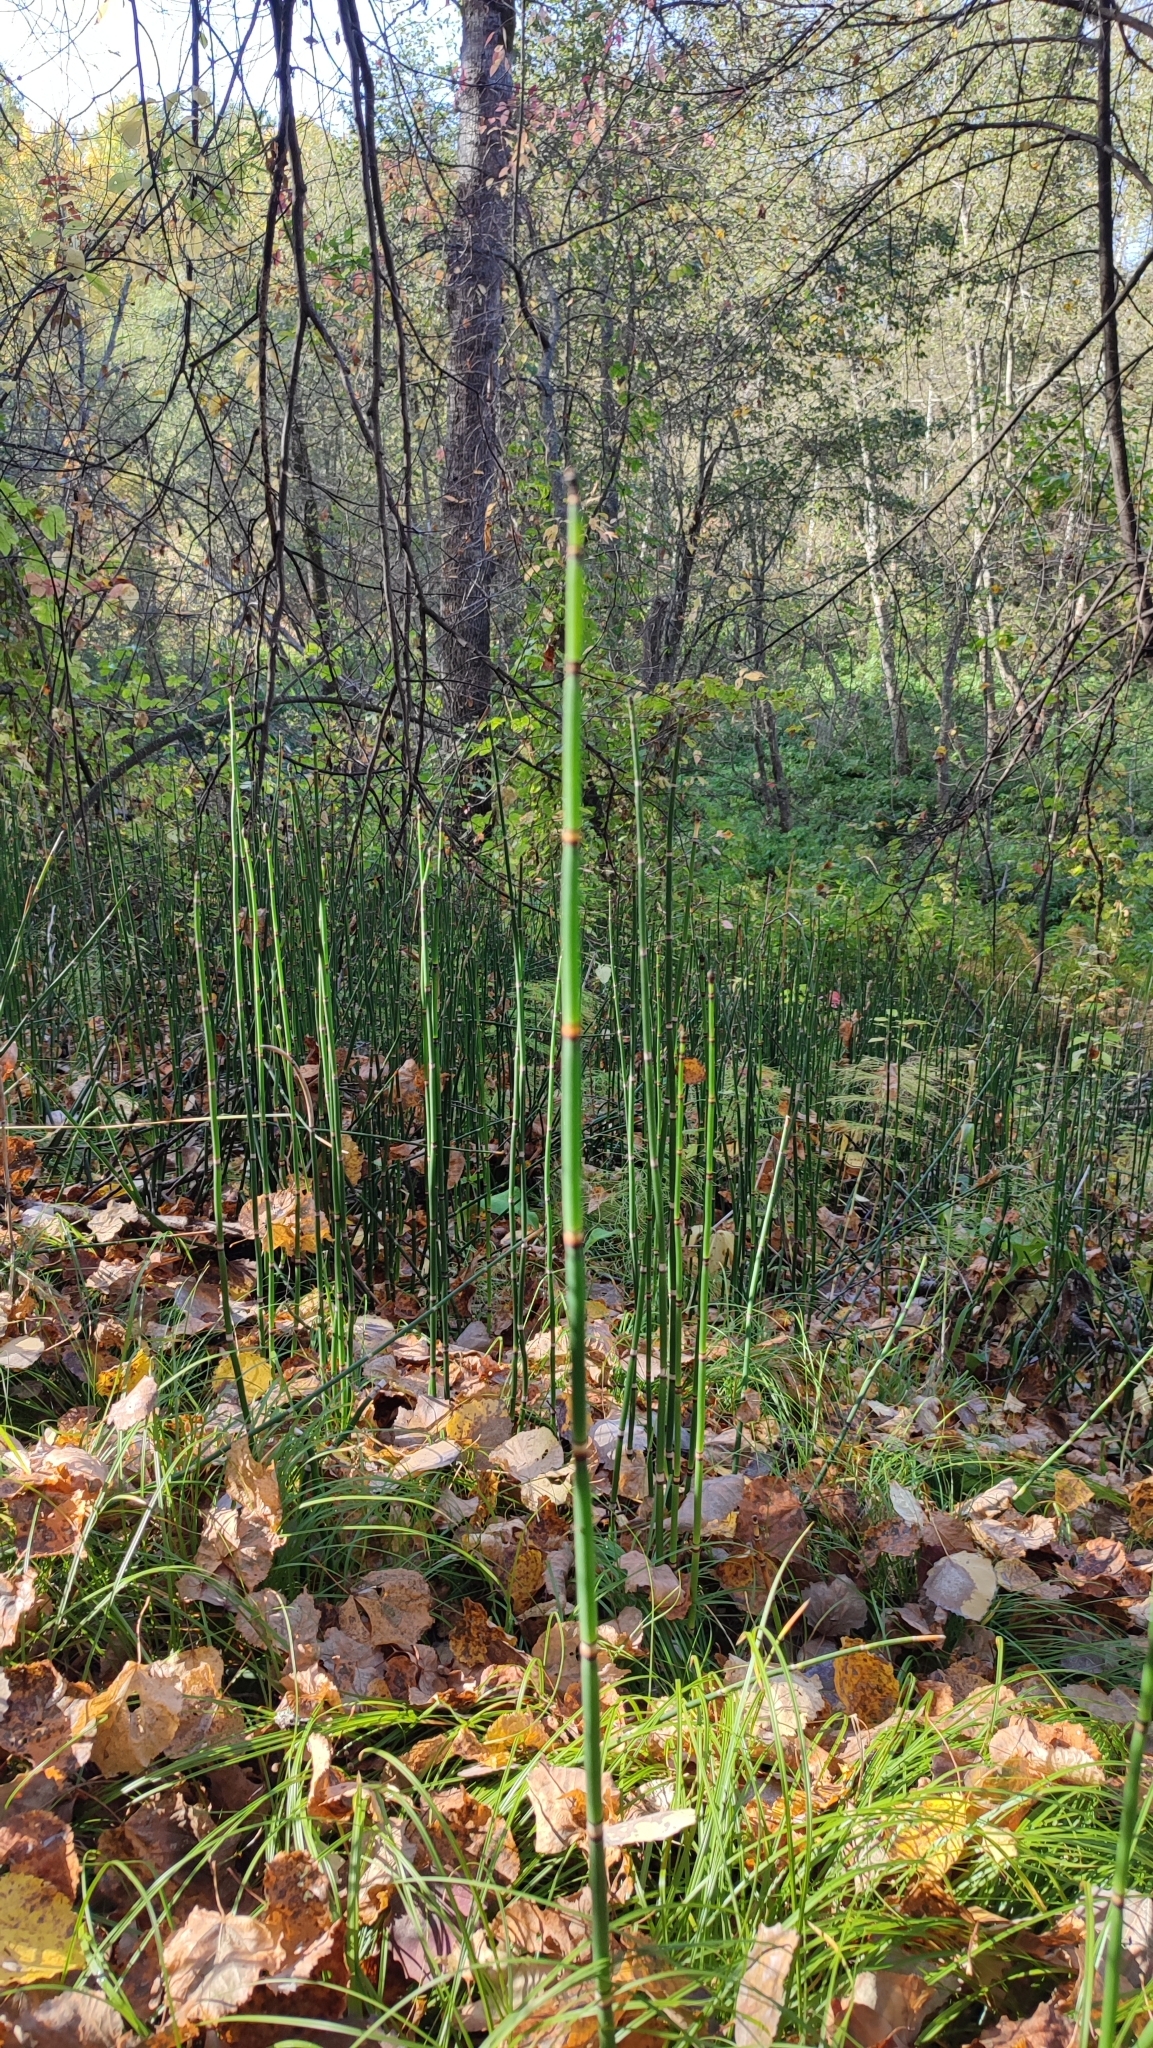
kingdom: Plantae
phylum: Tracheophyta
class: Polypodiopsida
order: Equisetales
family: Equisetaceae
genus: Equisetum
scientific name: Equisetum hyemale
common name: Rough horsetail
